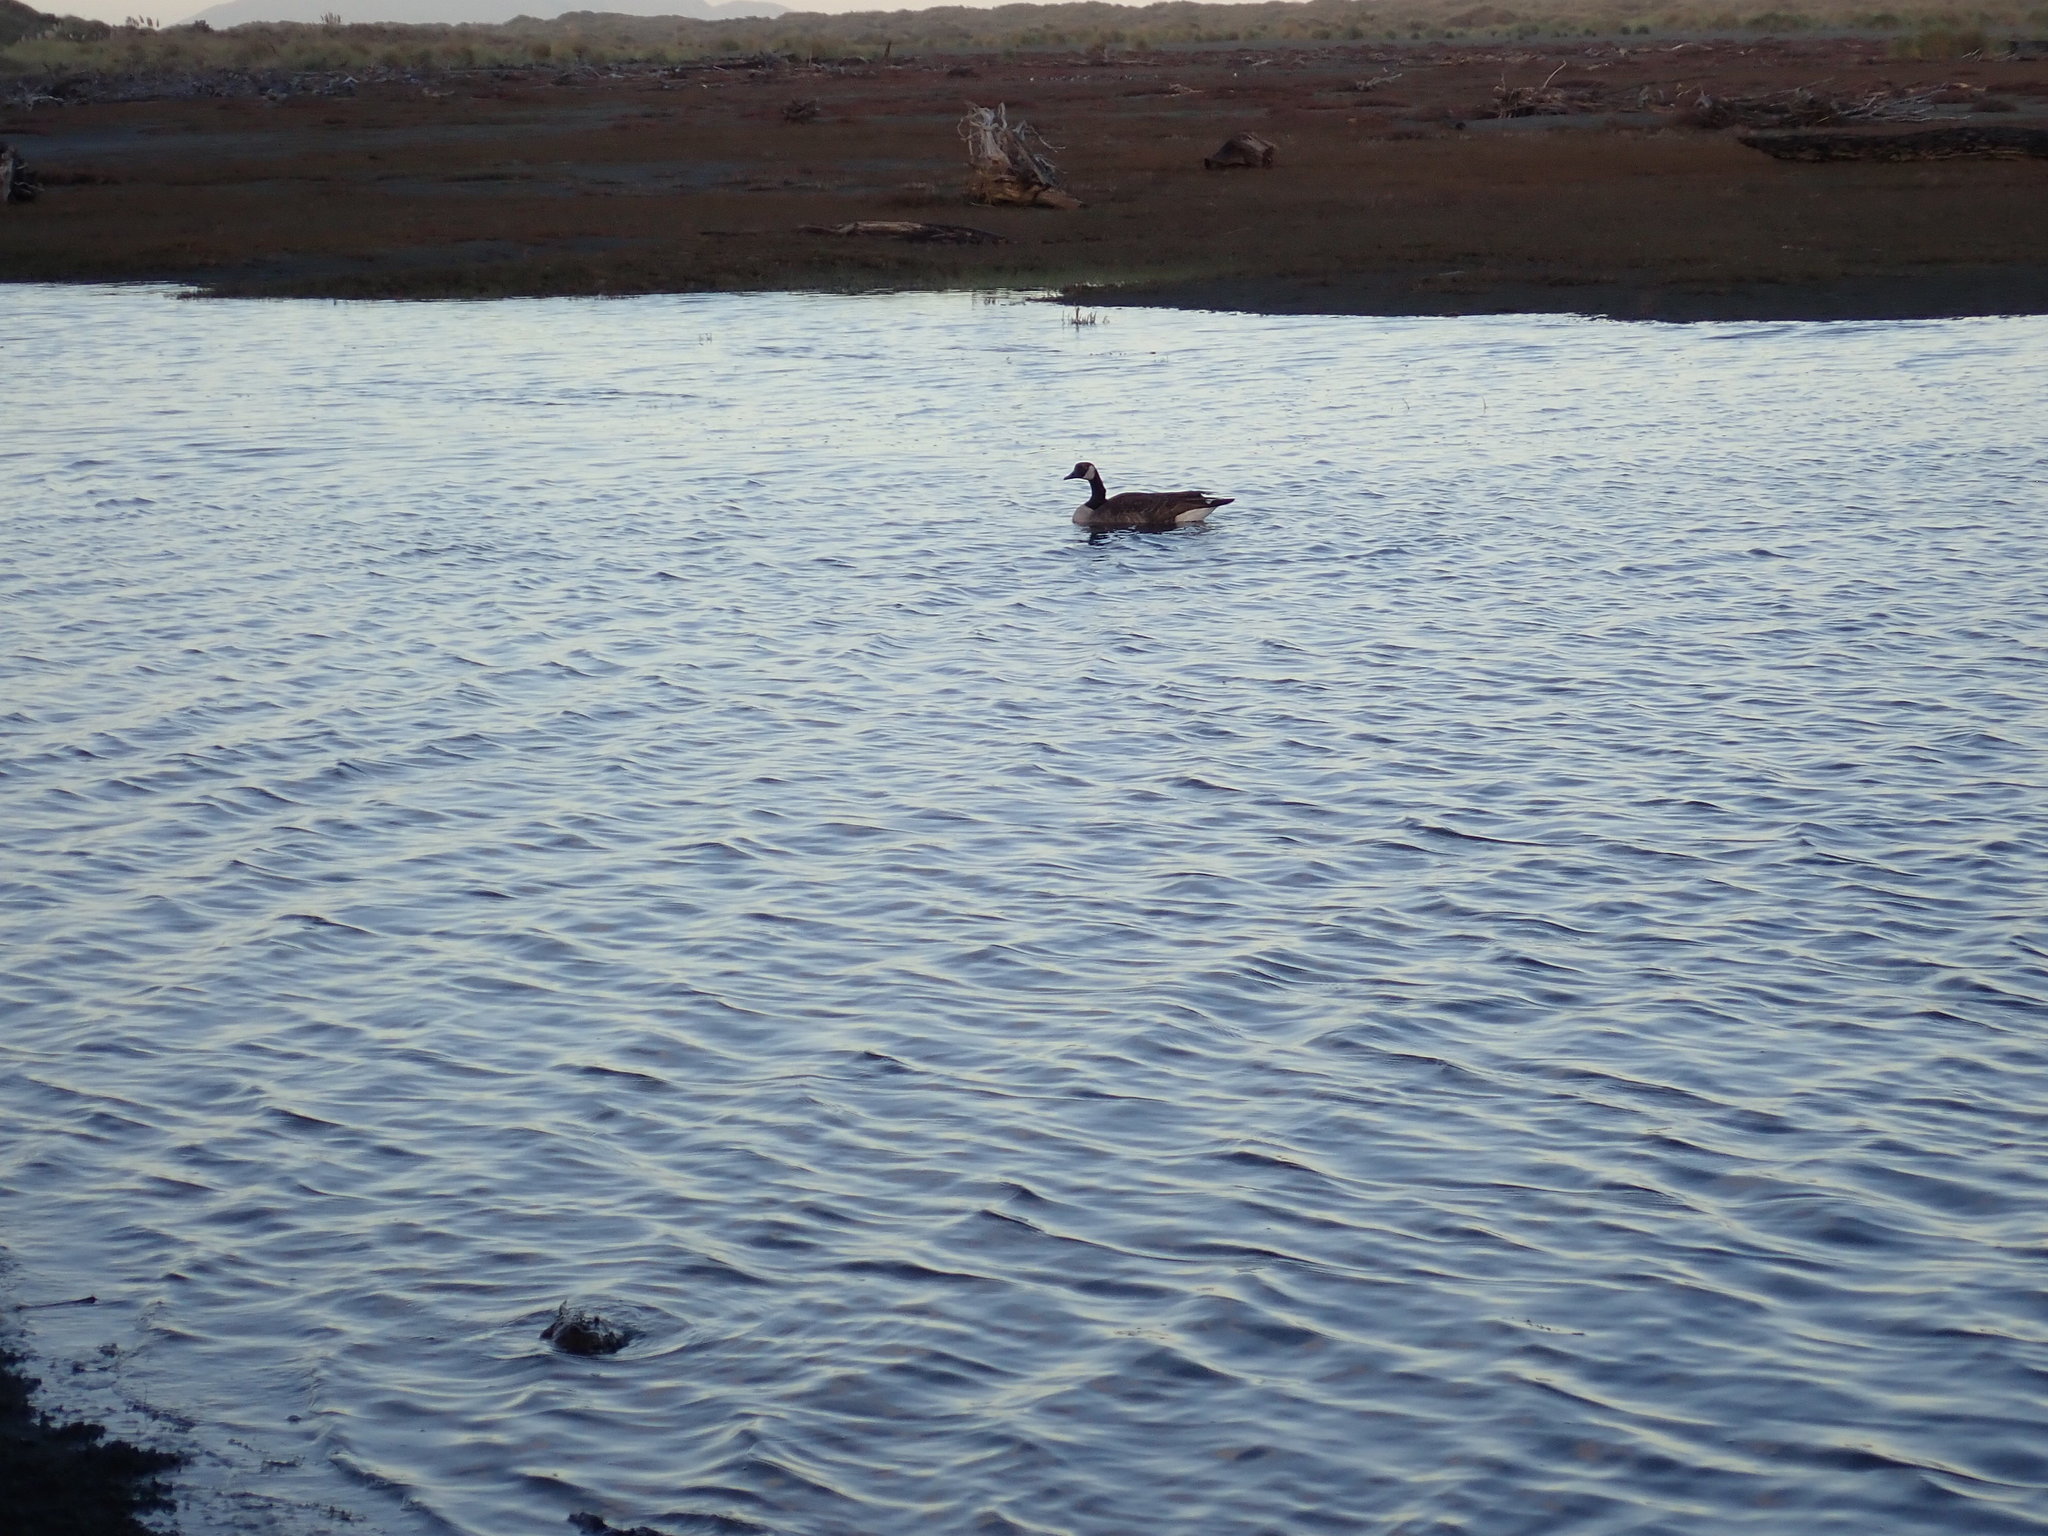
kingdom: Animalia
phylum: Chordata
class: Aves
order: Anseriformes
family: Anatidae
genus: Branta
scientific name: Branta canadensis
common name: Canada goose
